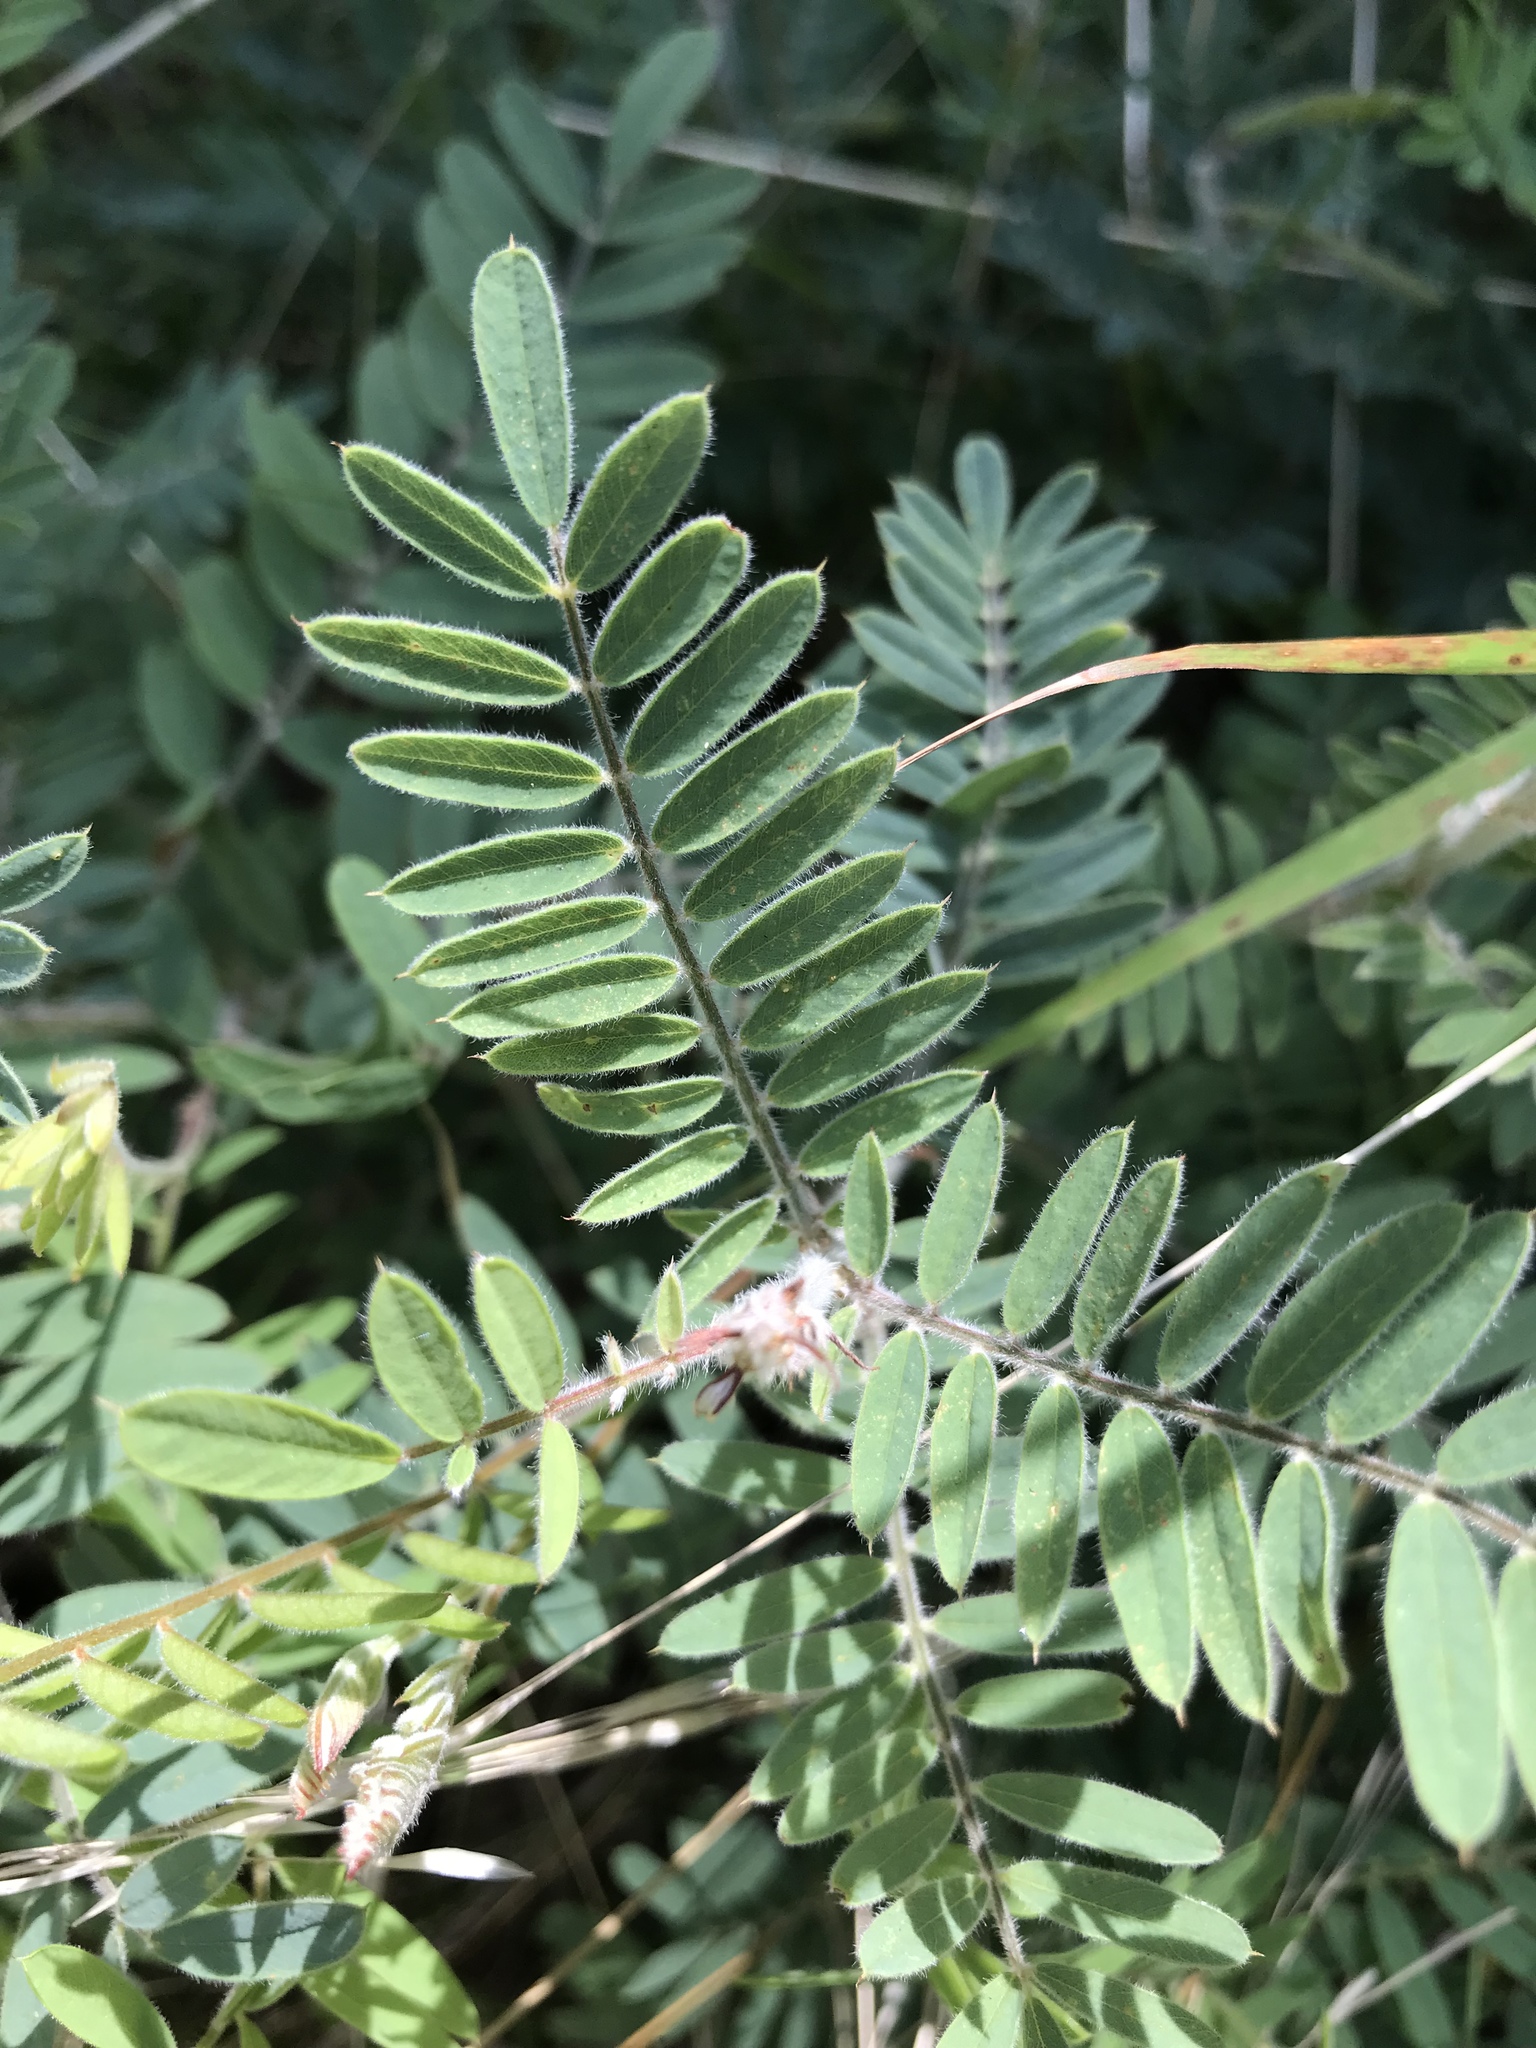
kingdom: Plantae
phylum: Tracheophyta
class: Magnoliopsida
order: Fabales
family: Fabaceae
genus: Tephrosia
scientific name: Tephrosia virginiana
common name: Rabbit-pea
